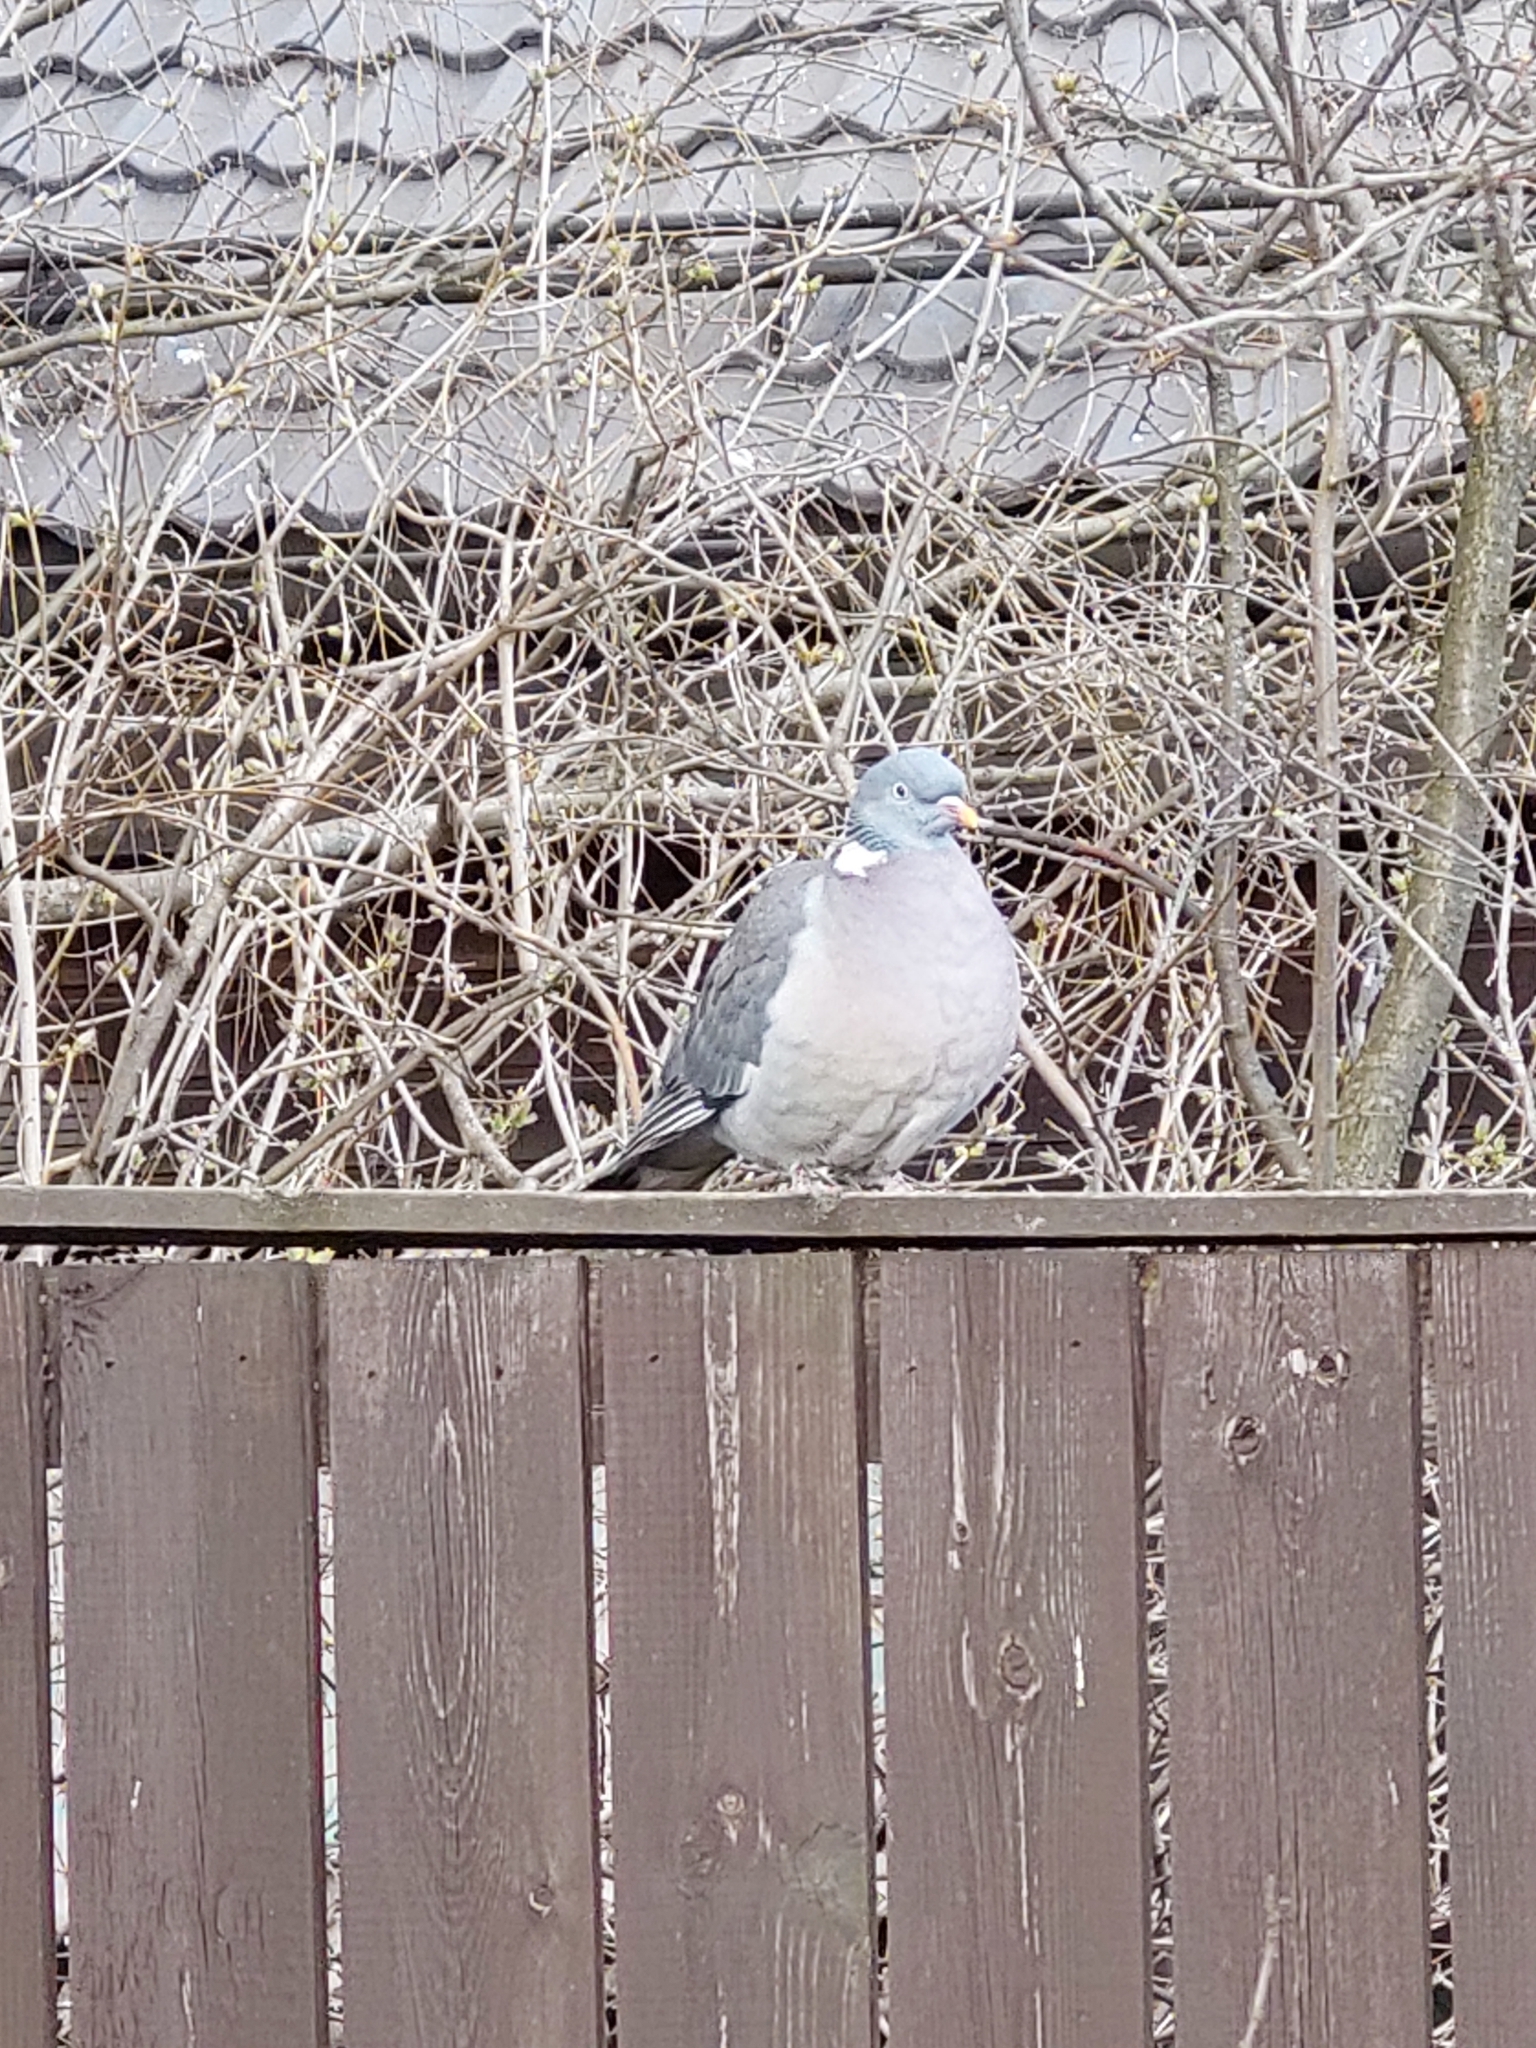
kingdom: Animalia
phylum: Chordata
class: Aves
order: Columbiformes
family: Columbidae
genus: Columba
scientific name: Columba palumbus
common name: Common wood pigeon
